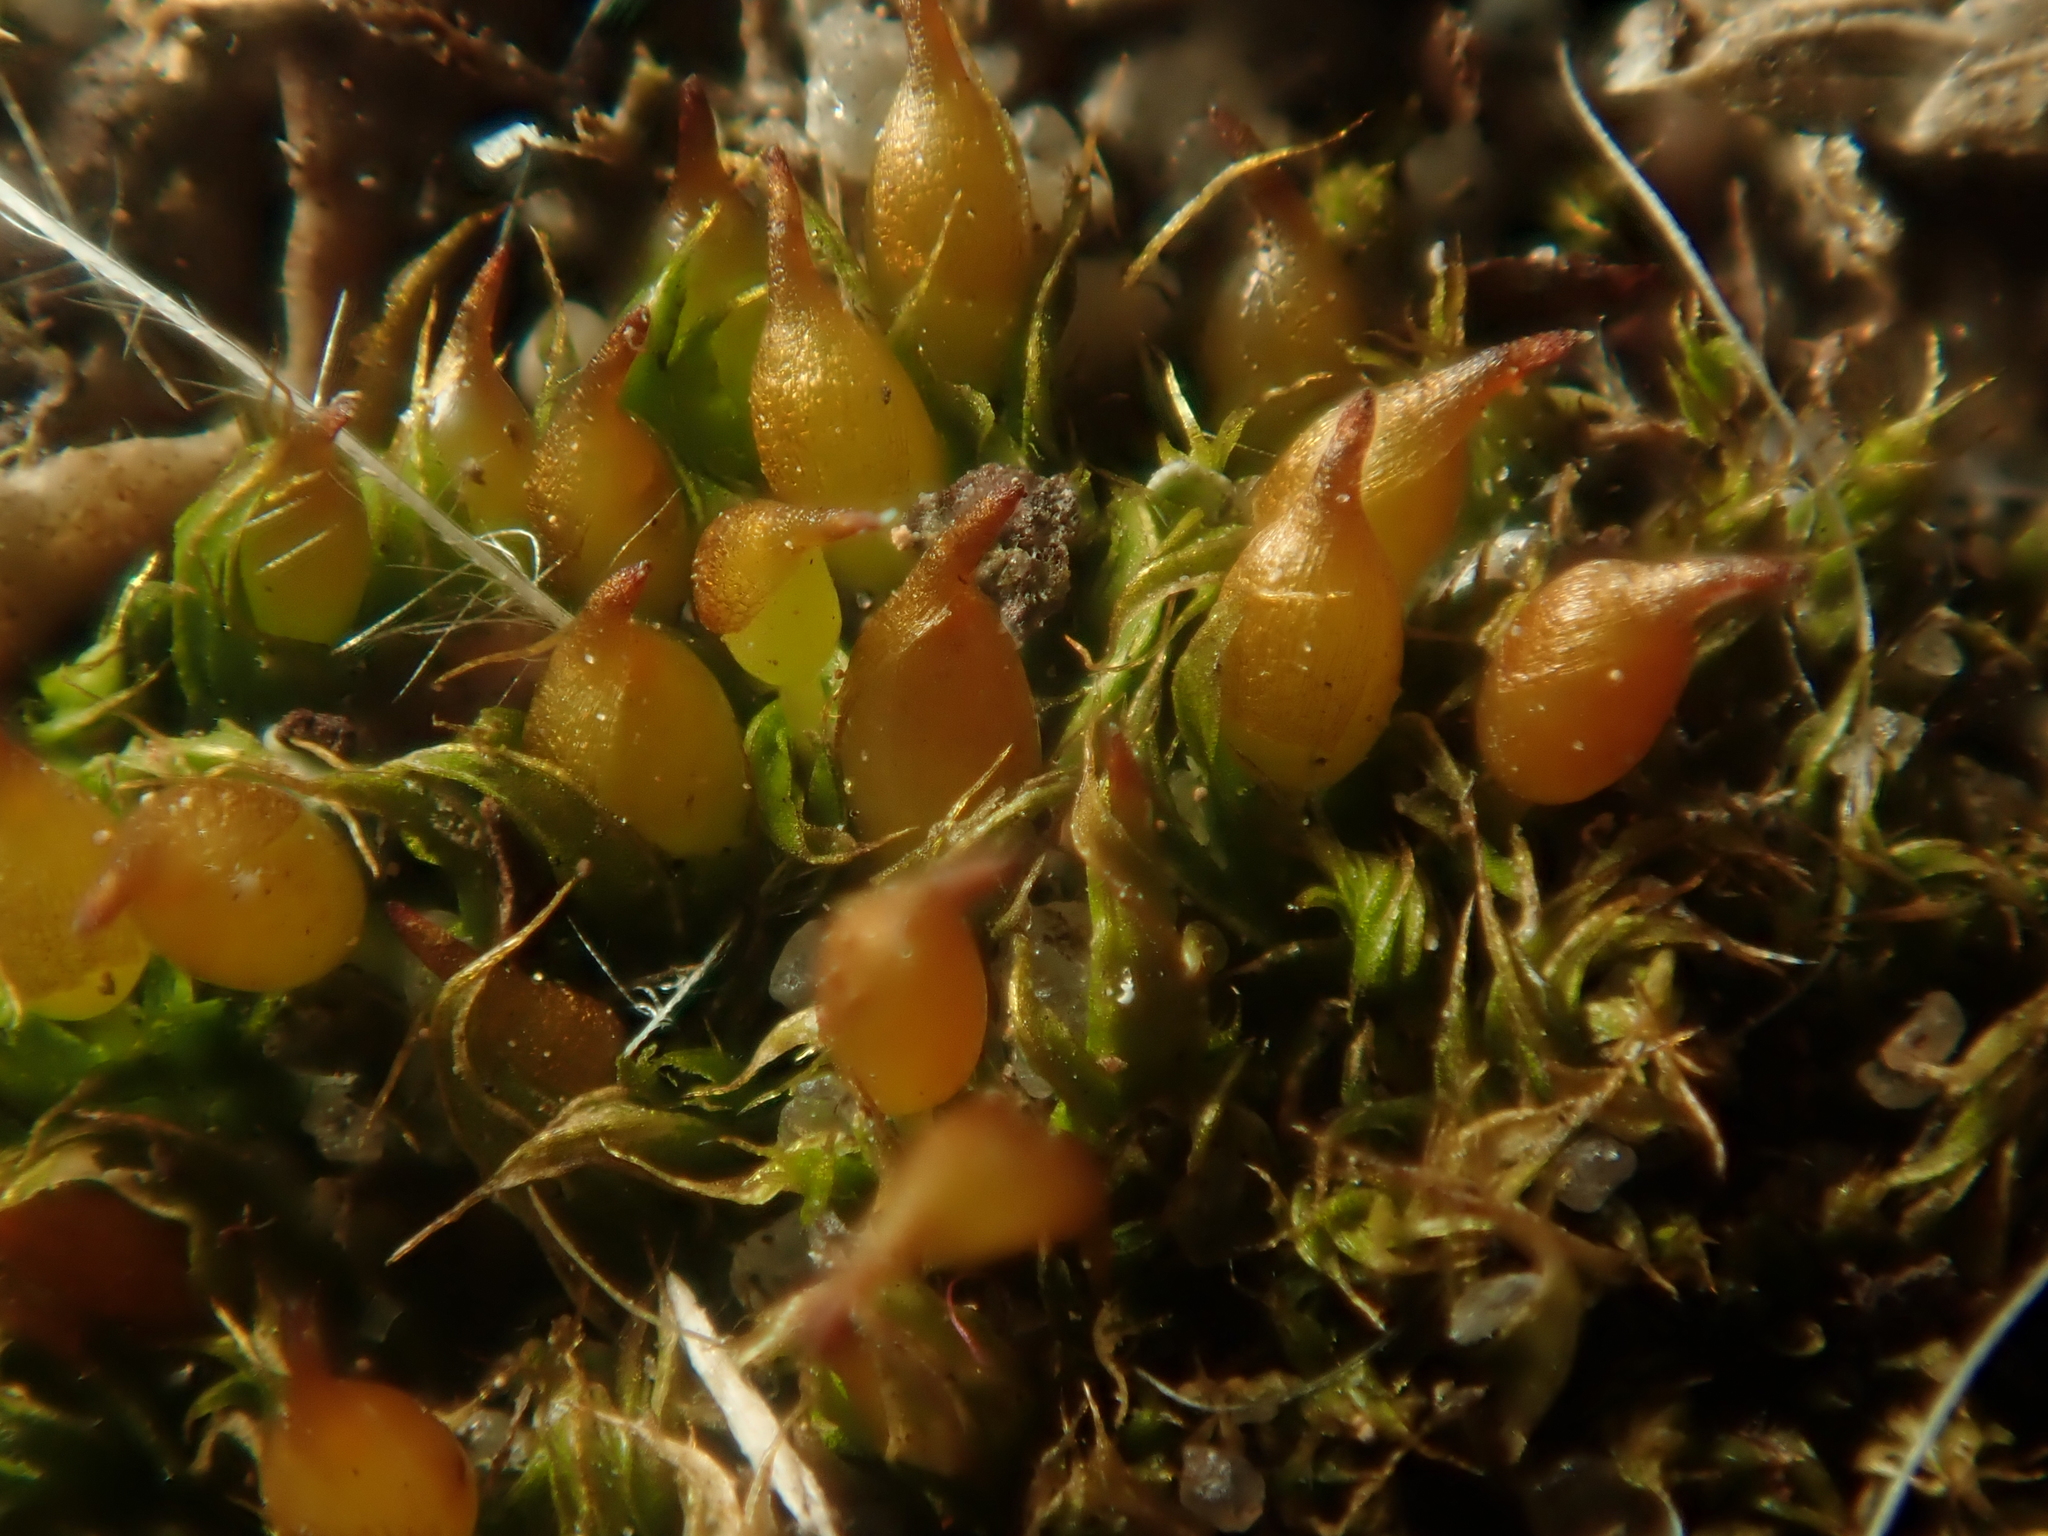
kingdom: Plantae
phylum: Bryophyta
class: Bryopsida
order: Pottiales
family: Pottiaceae
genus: Tortula
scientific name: Tortula protobryoides
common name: Tall pottia
